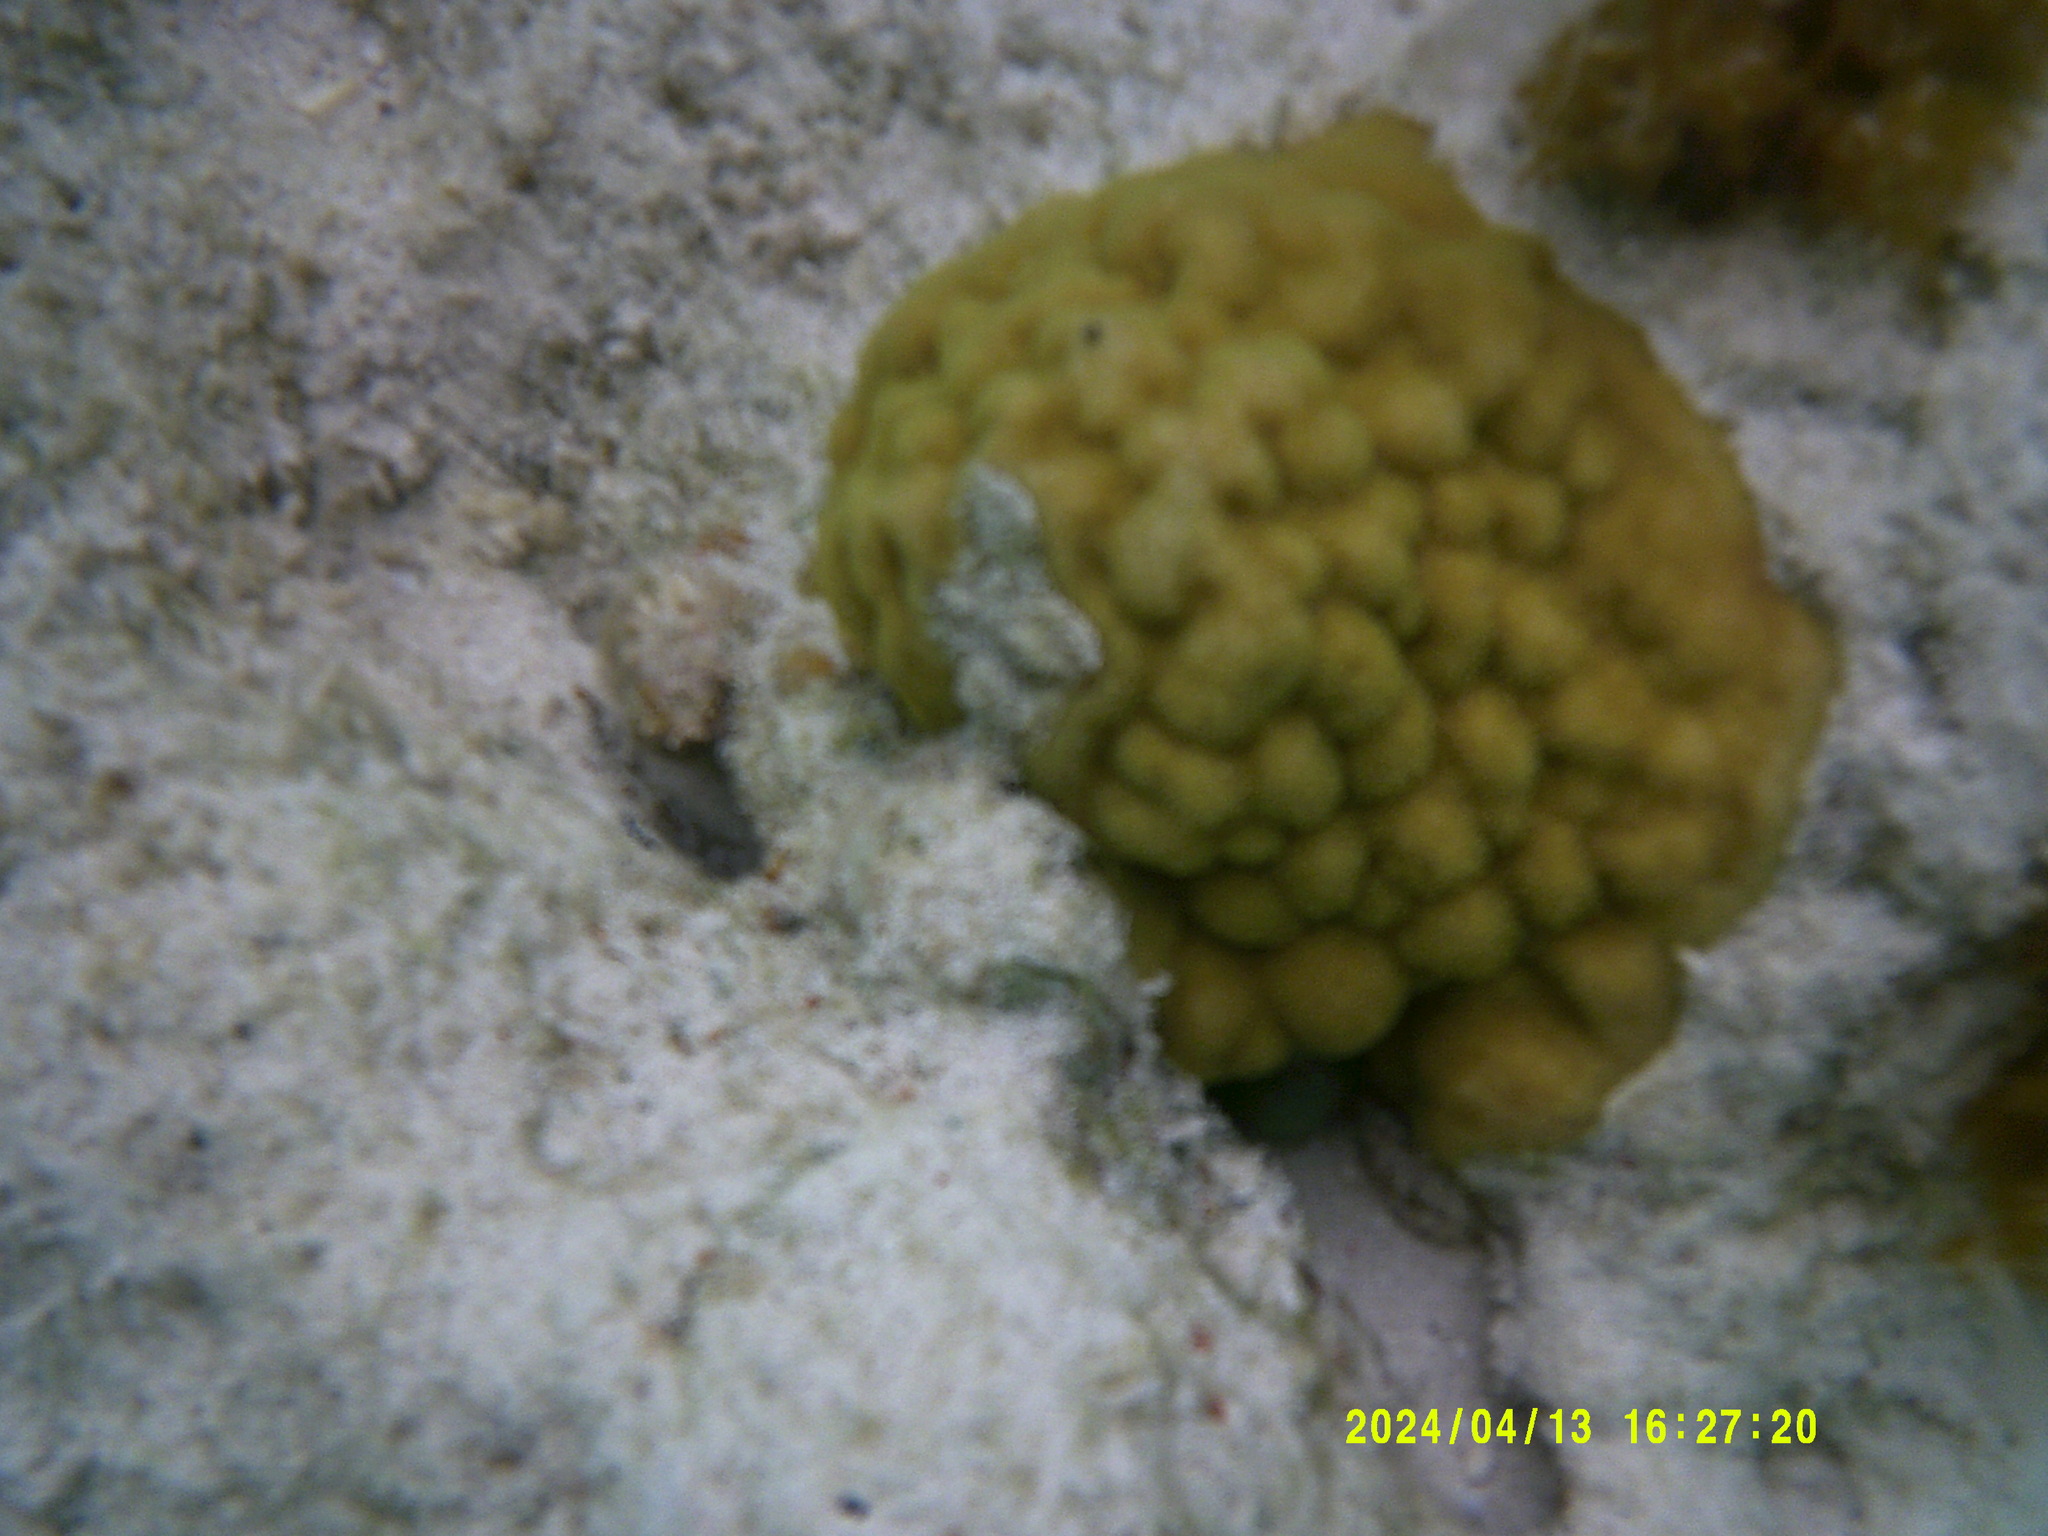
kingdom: Animalia
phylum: Cnidaria
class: Anthozoa
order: Scleractinia
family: Poritidae
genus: Porites
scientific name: Porites astreoides
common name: Mustard hill coral
